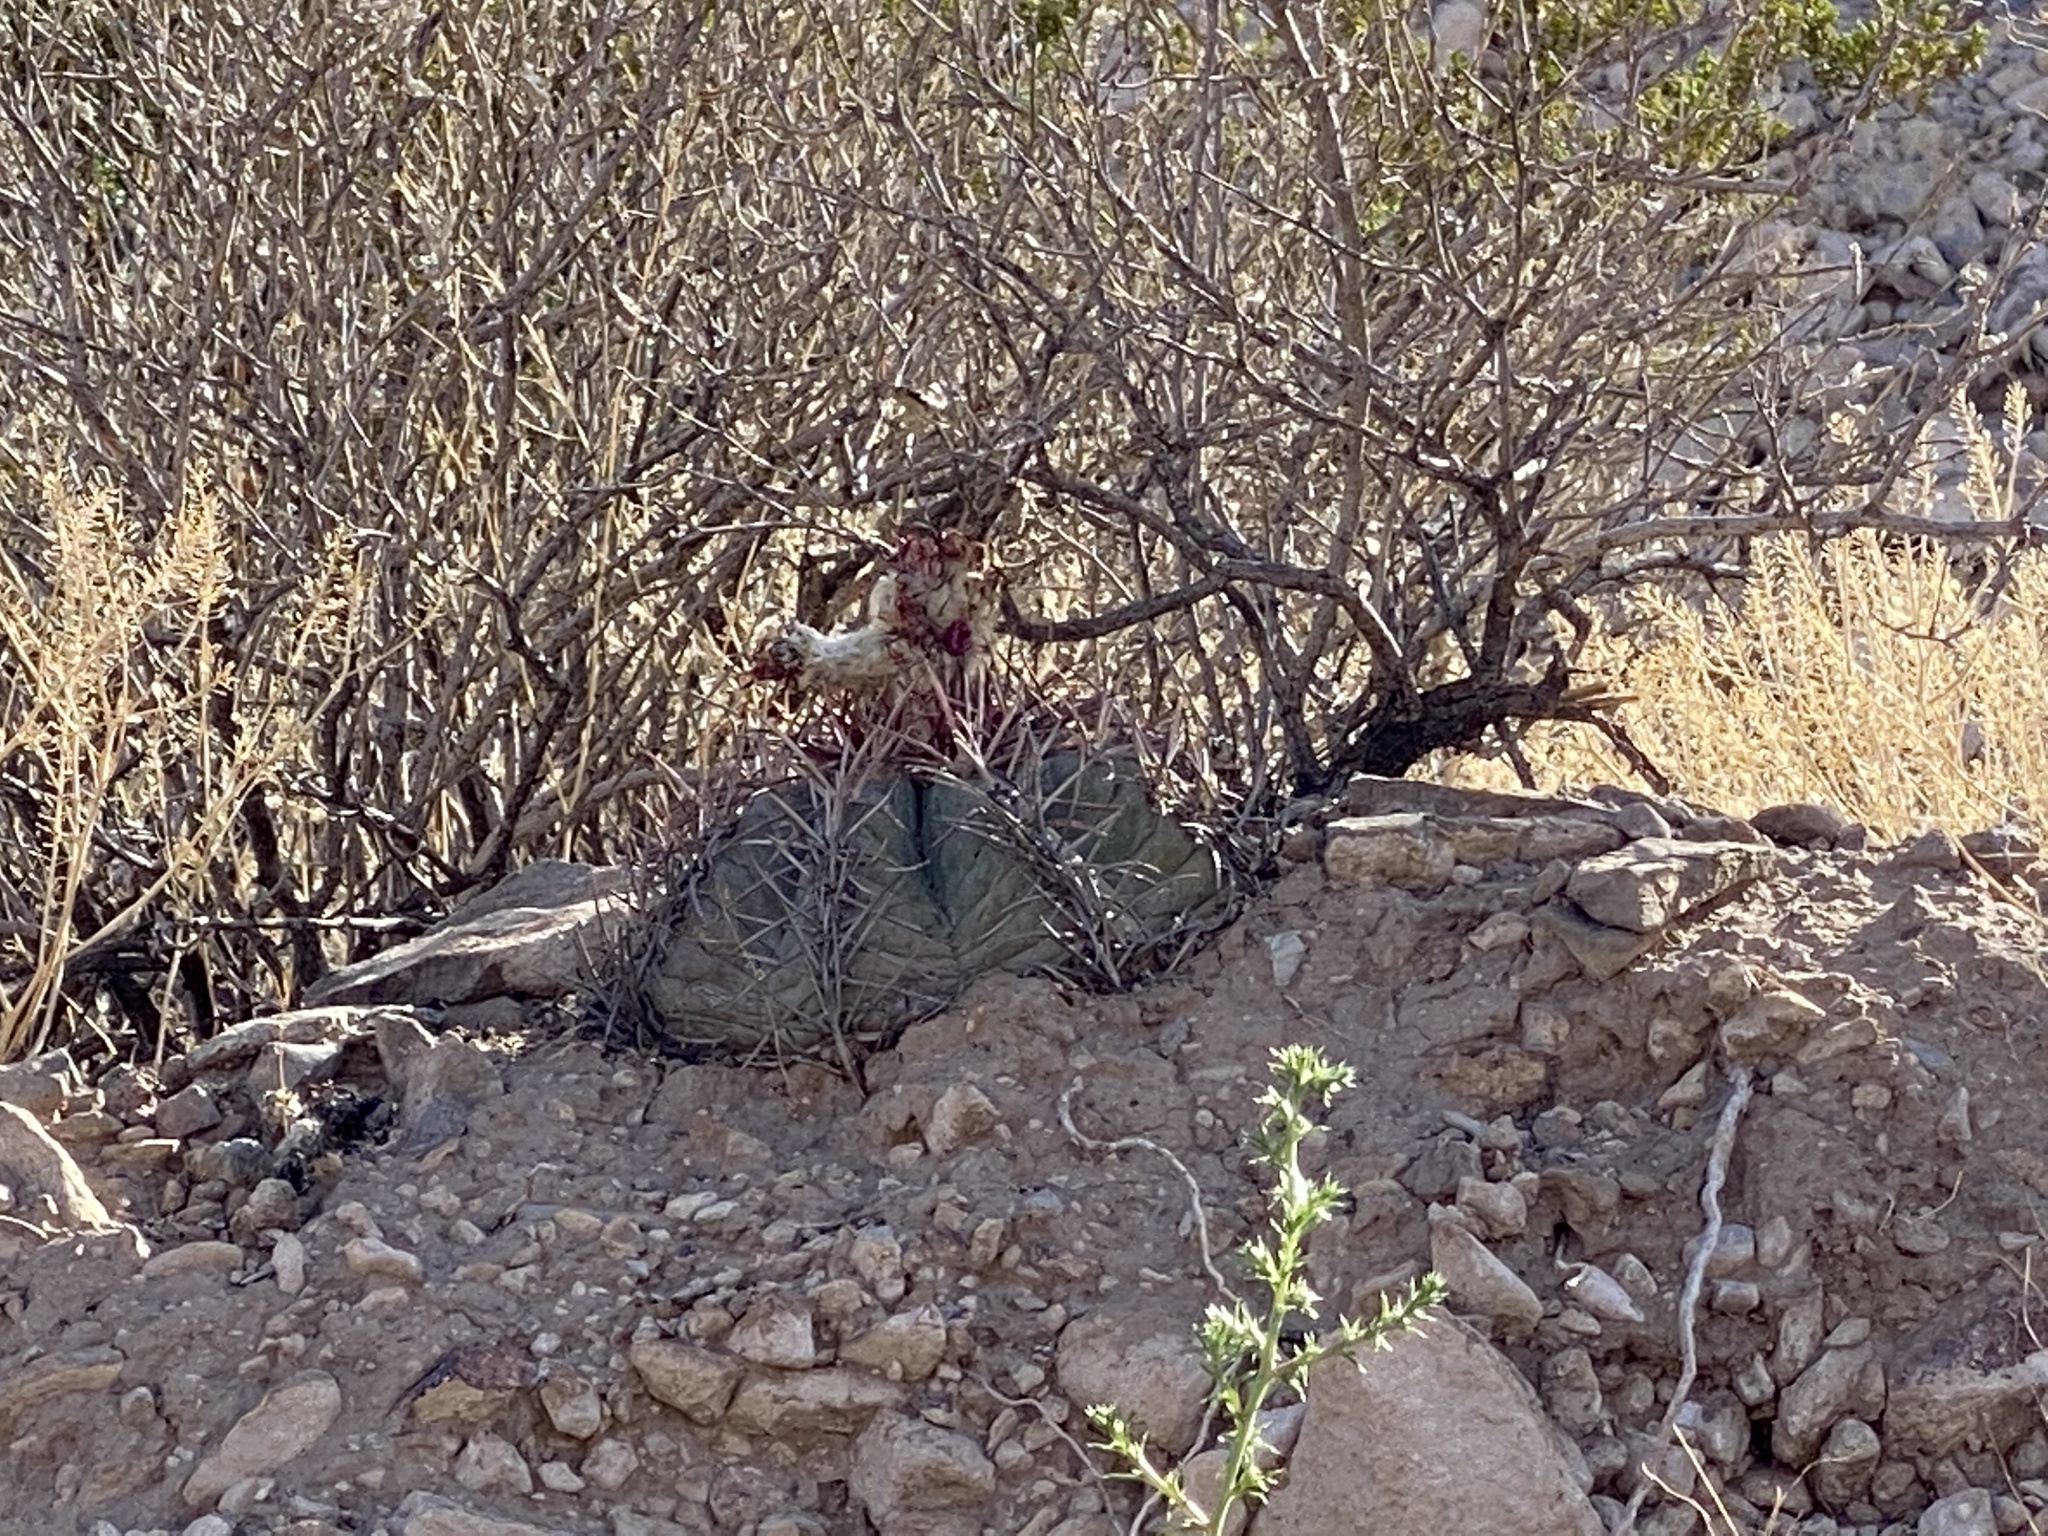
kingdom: Plantae
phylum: Tracheophyta
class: Magnoliopsida
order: Caryophyllales
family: Cactaceae
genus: Echinocactus
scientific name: Echinocactus horizonthalonius
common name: Devilshead
